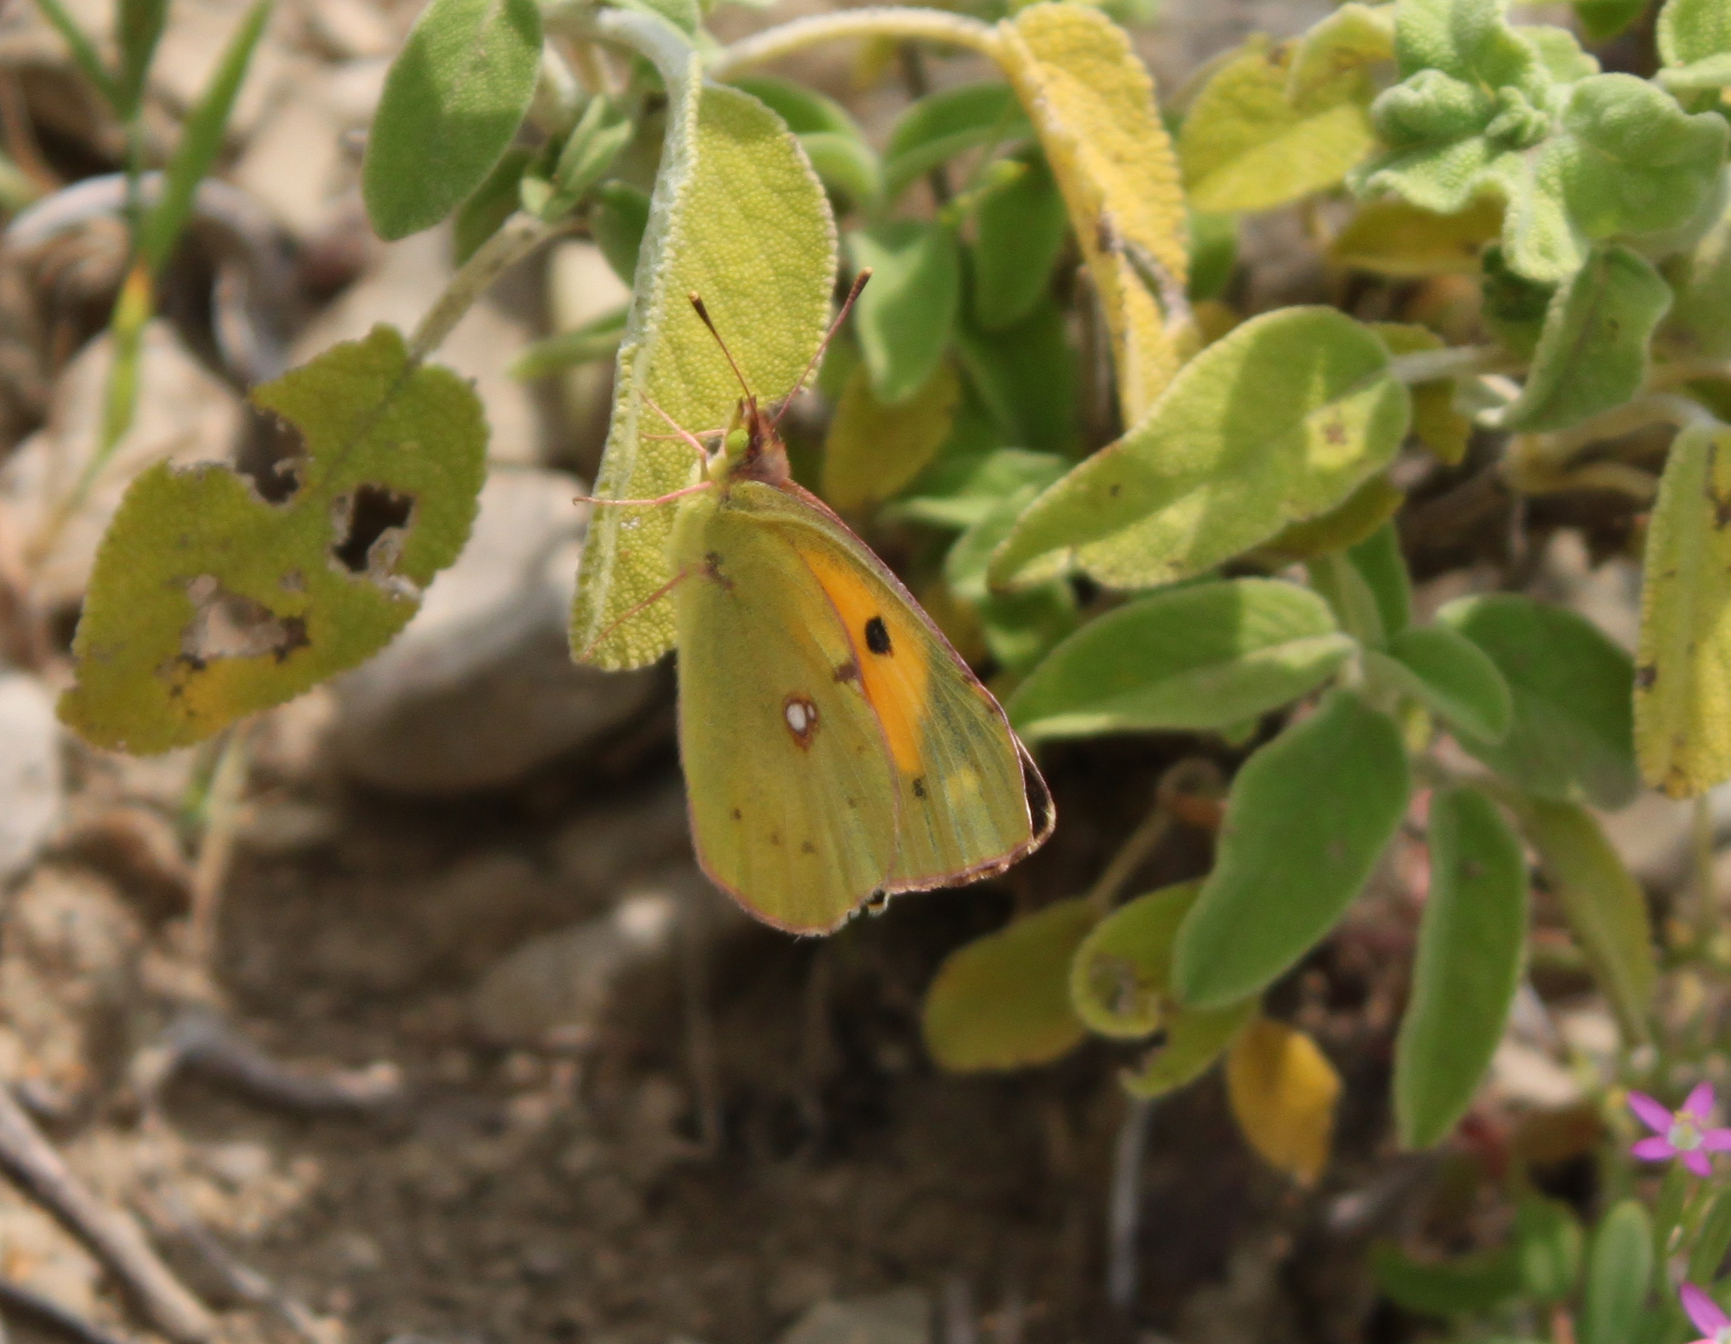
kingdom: Animalia
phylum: Arthropoda
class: Insecta
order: Lepidoptera
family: Pieridae
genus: Colias
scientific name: Colias croceus
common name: Clouded yellow
